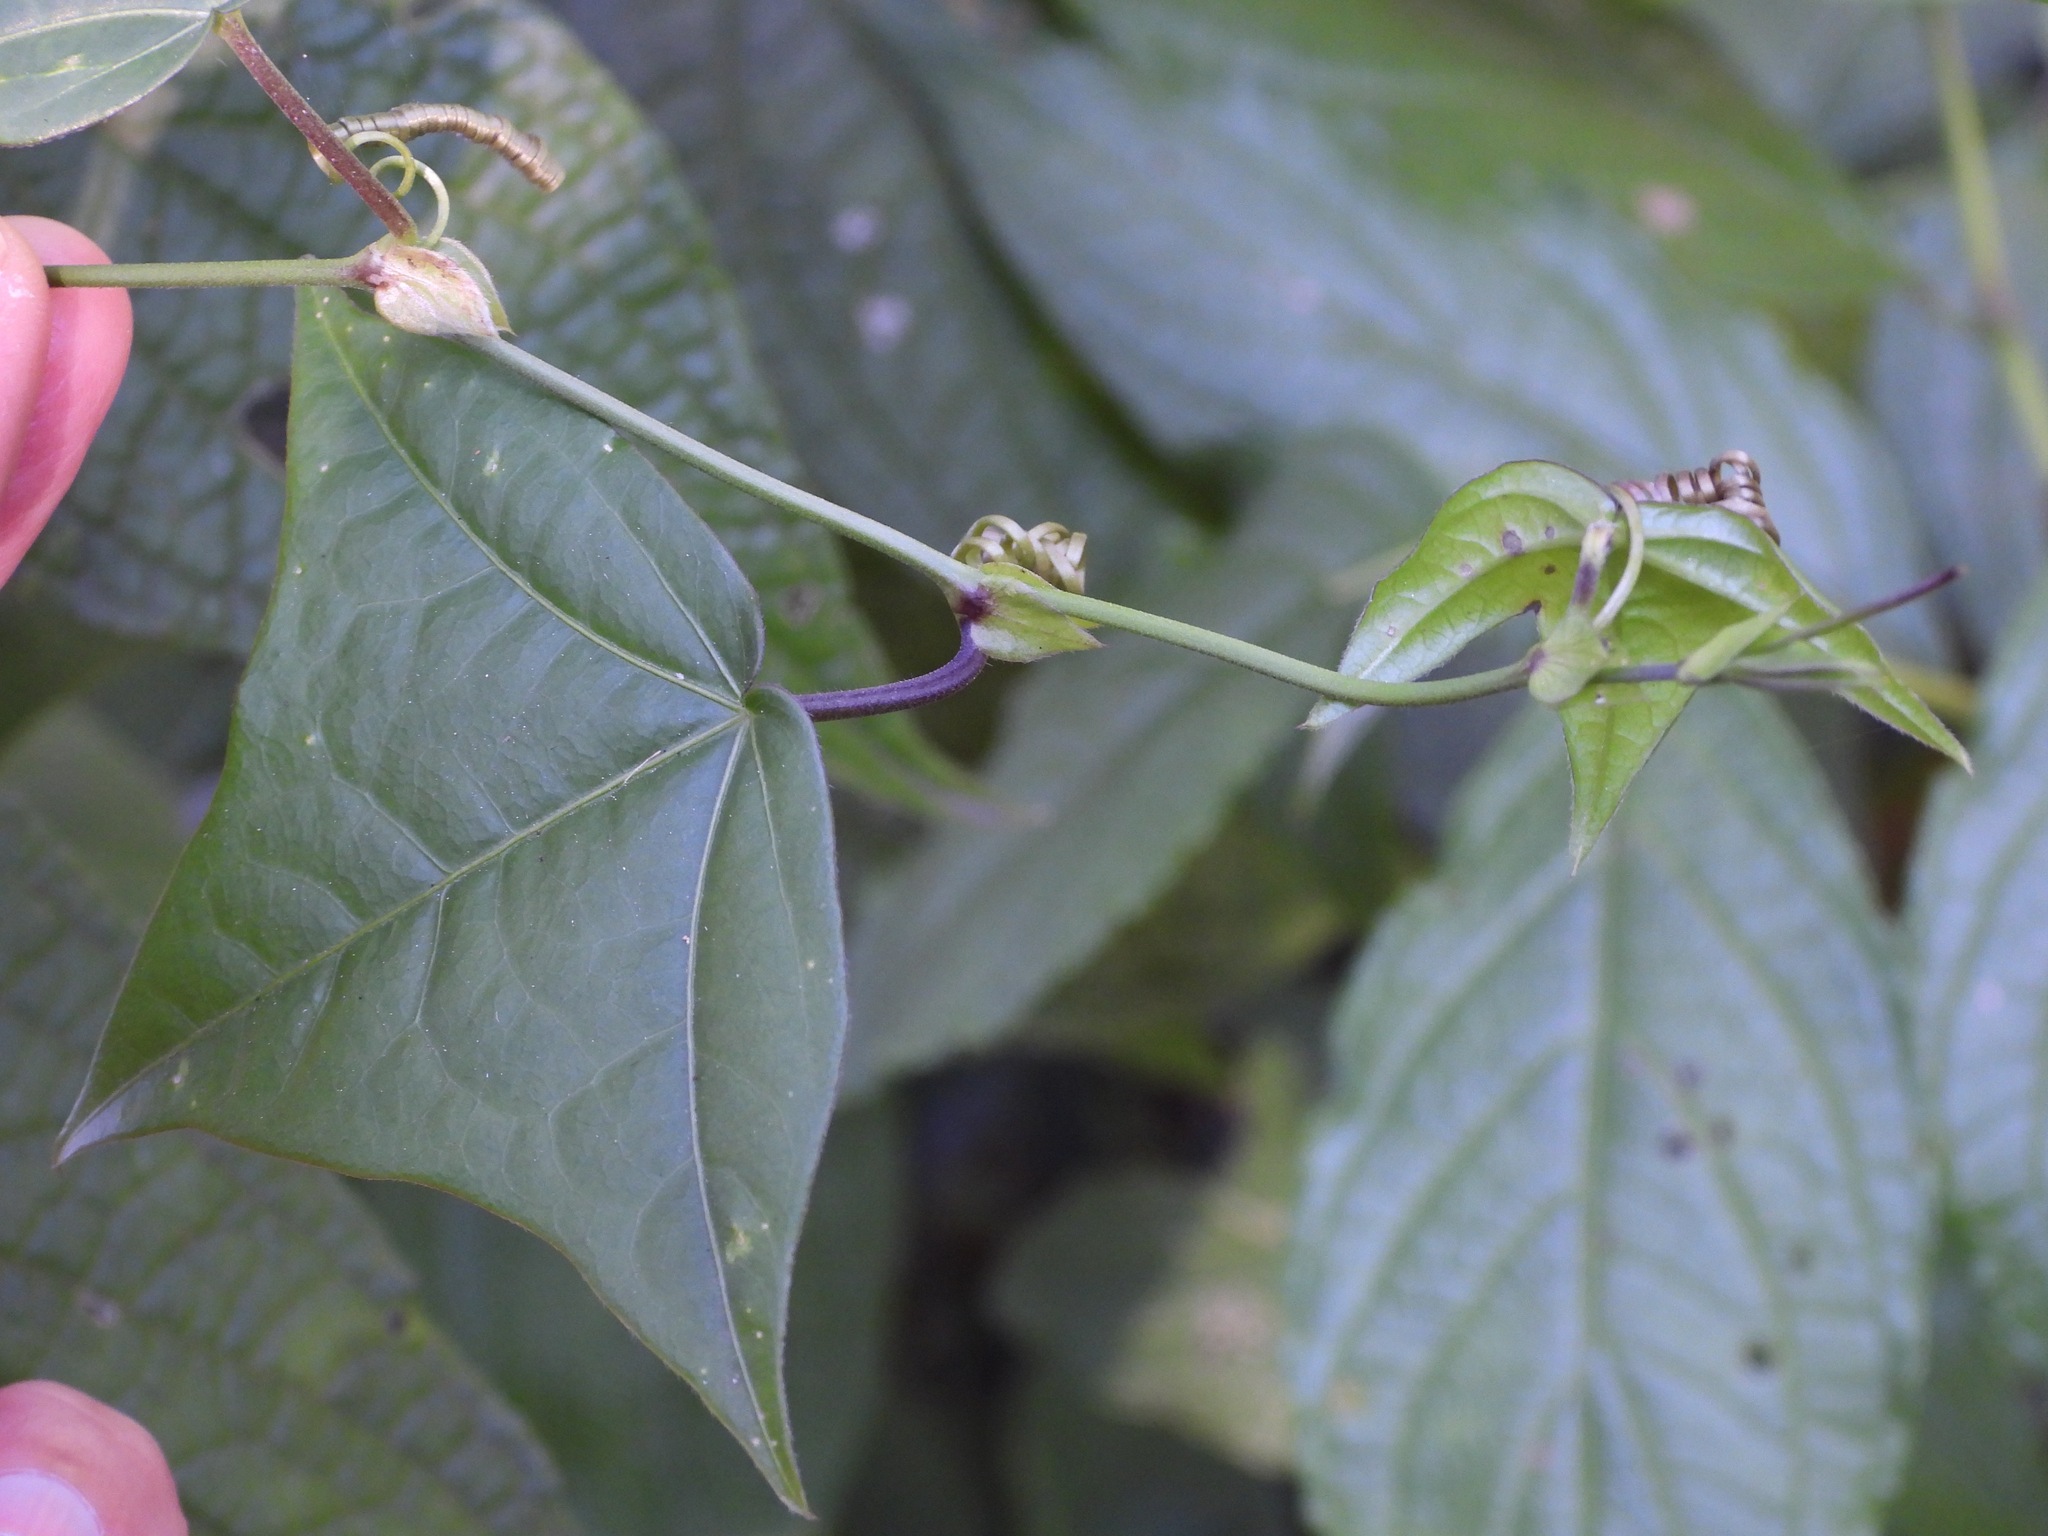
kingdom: Plantae
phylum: Tracheophyta
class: Magnoliopsida
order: Malpighiales
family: Passifloraceae
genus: Passiflora
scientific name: Passiflora eglandulosa
